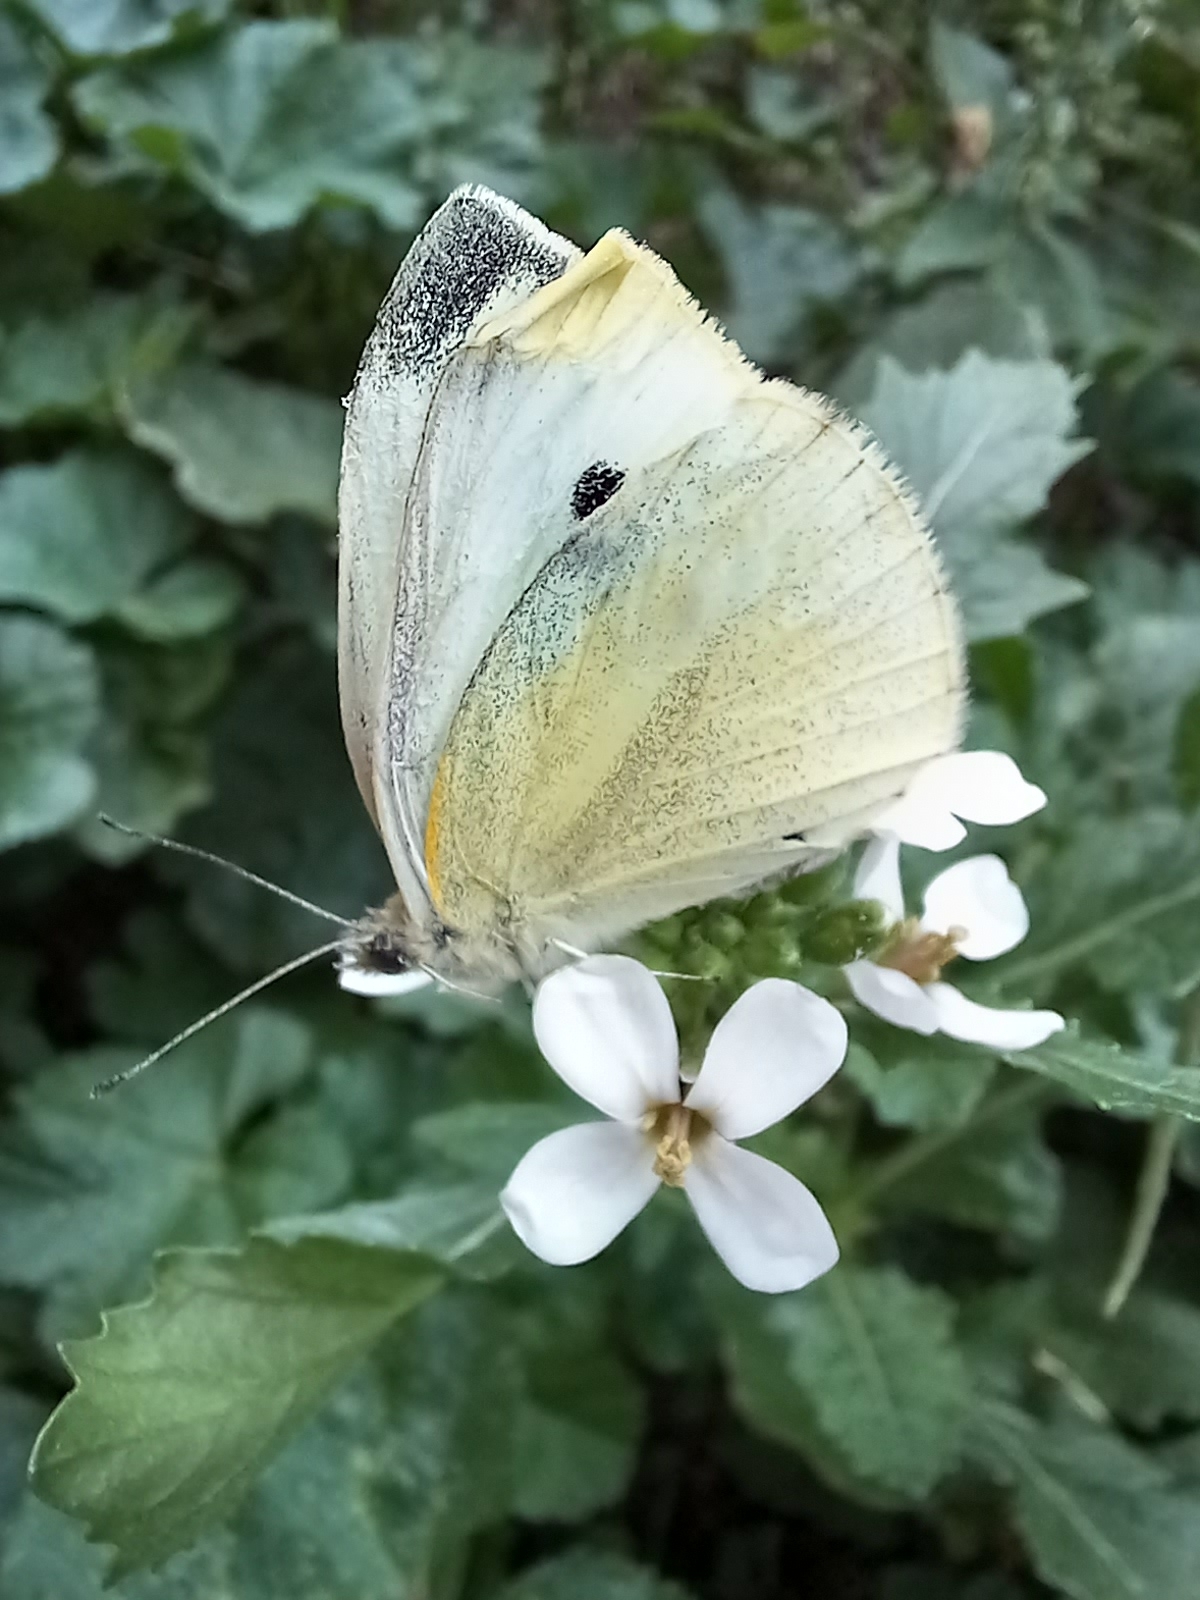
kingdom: Animalia
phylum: Arthropoda
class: Insecta
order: Lepidoptera
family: Pieridae
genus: Pieris
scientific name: Pieris rapae
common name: Small white
